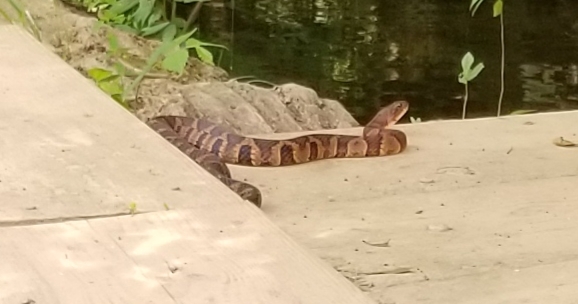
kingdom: Animalia
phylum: Chordata
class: Squamata
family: Colubridae
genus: Nerodia
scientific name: Nerodia sipedon
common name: Northern water snake
